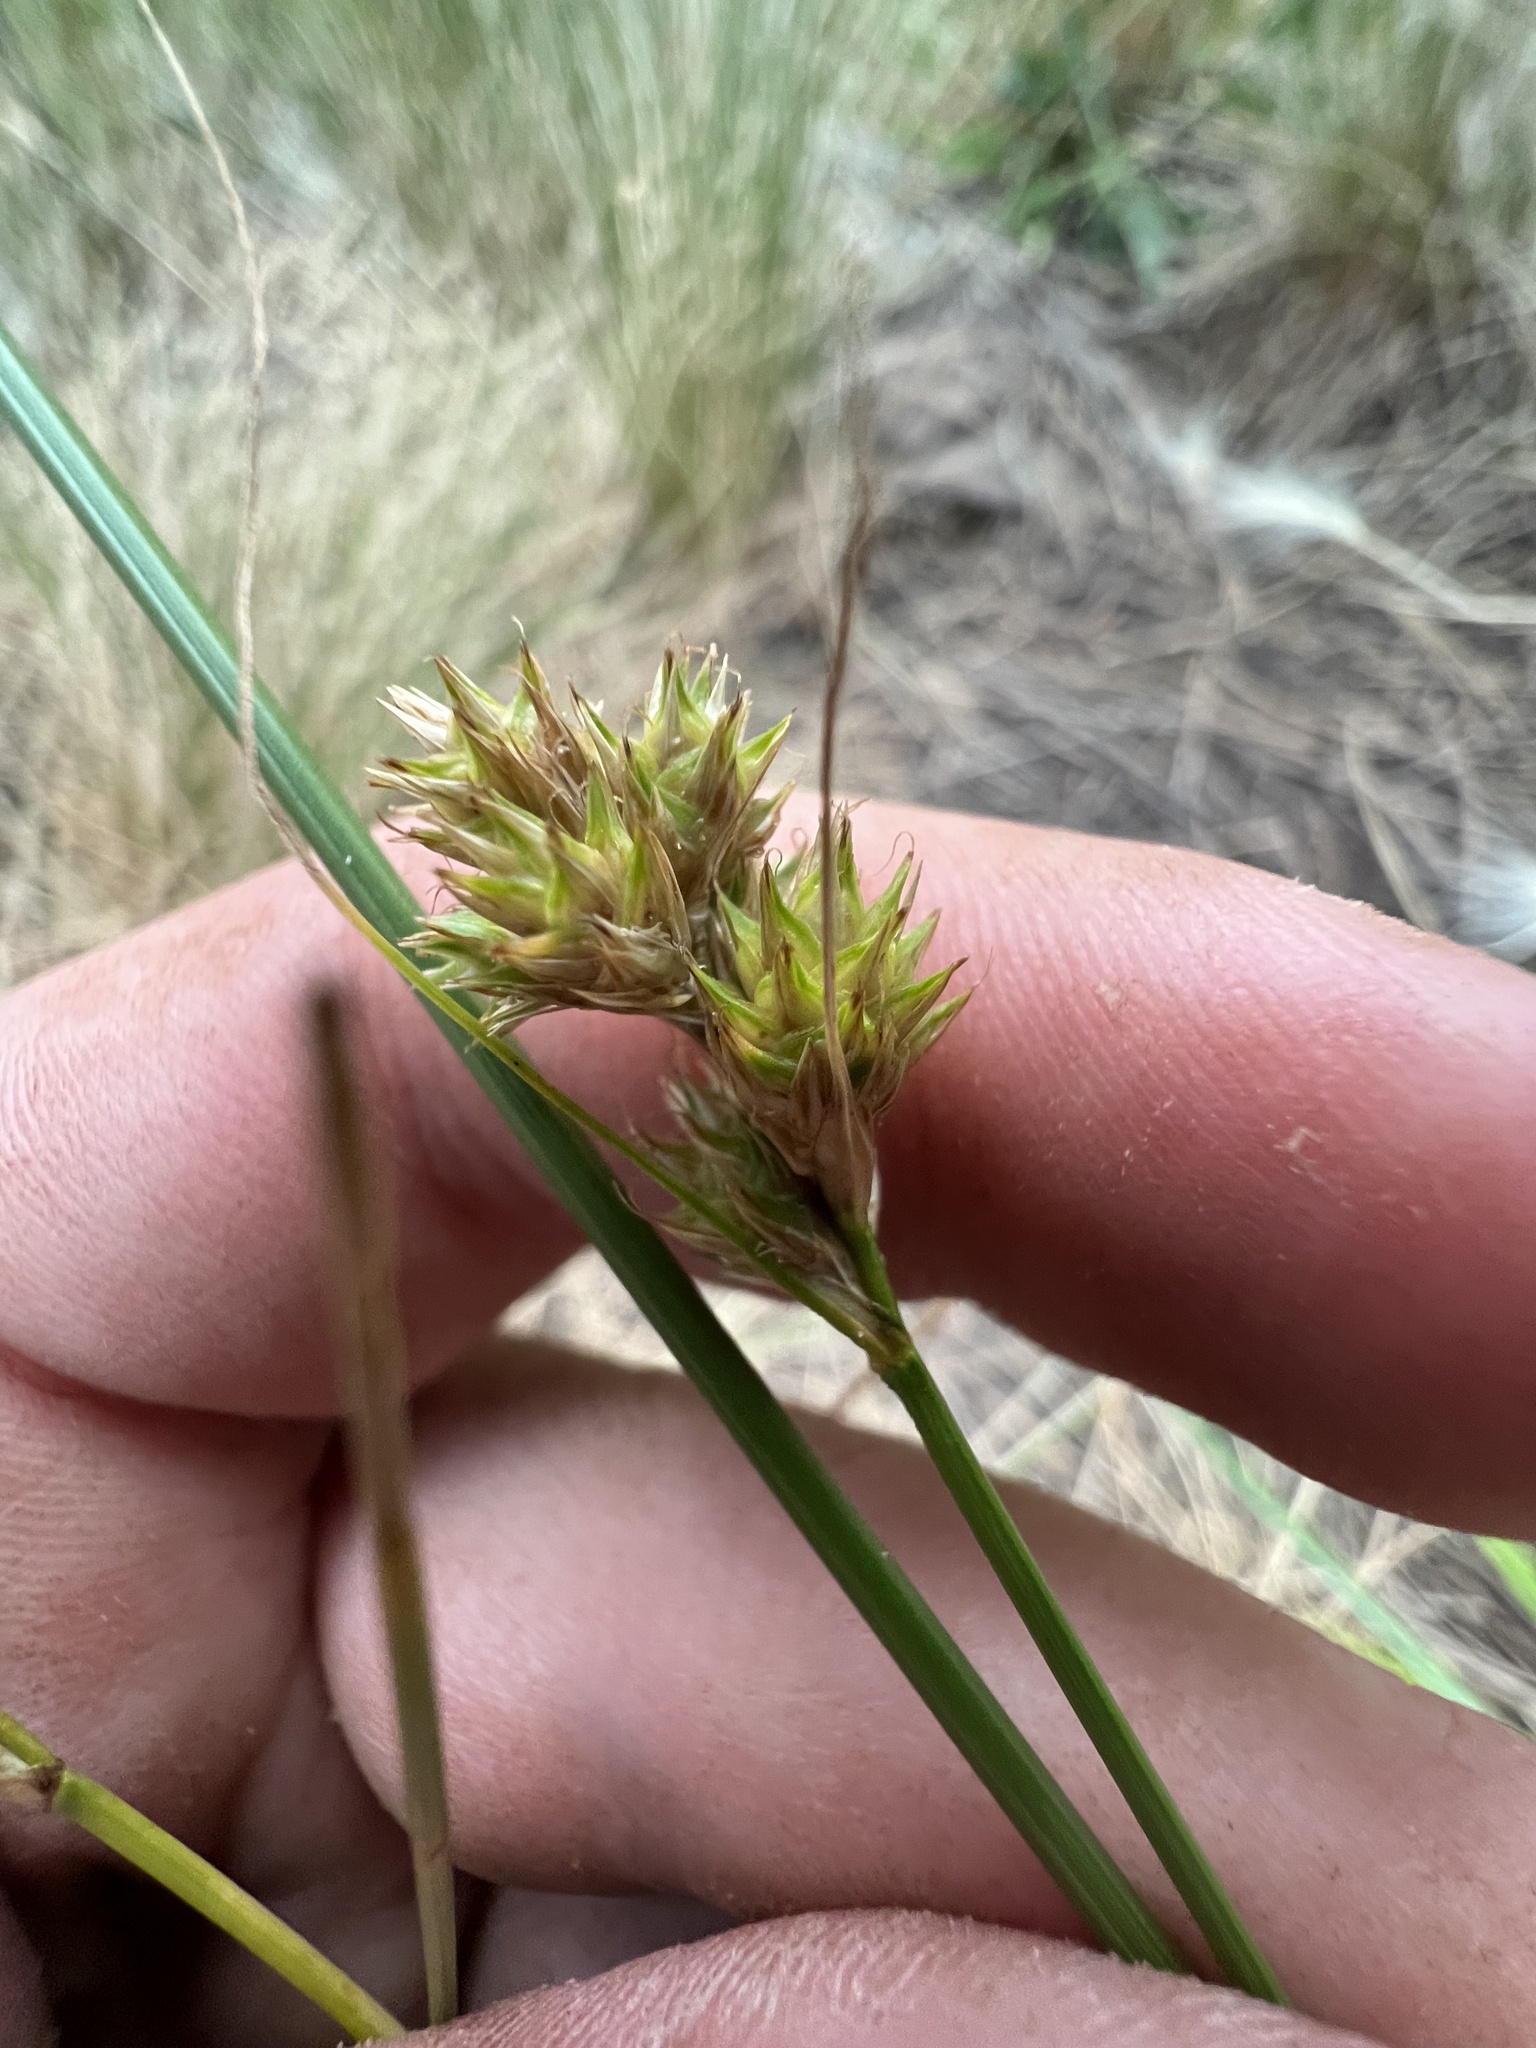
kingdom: Plantae
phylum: Tracheophyta
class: Liliopsida
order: Poales
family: Cyperaceae
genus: Carex
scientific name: Carex athrostachya
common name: Slenderbeak sedge
